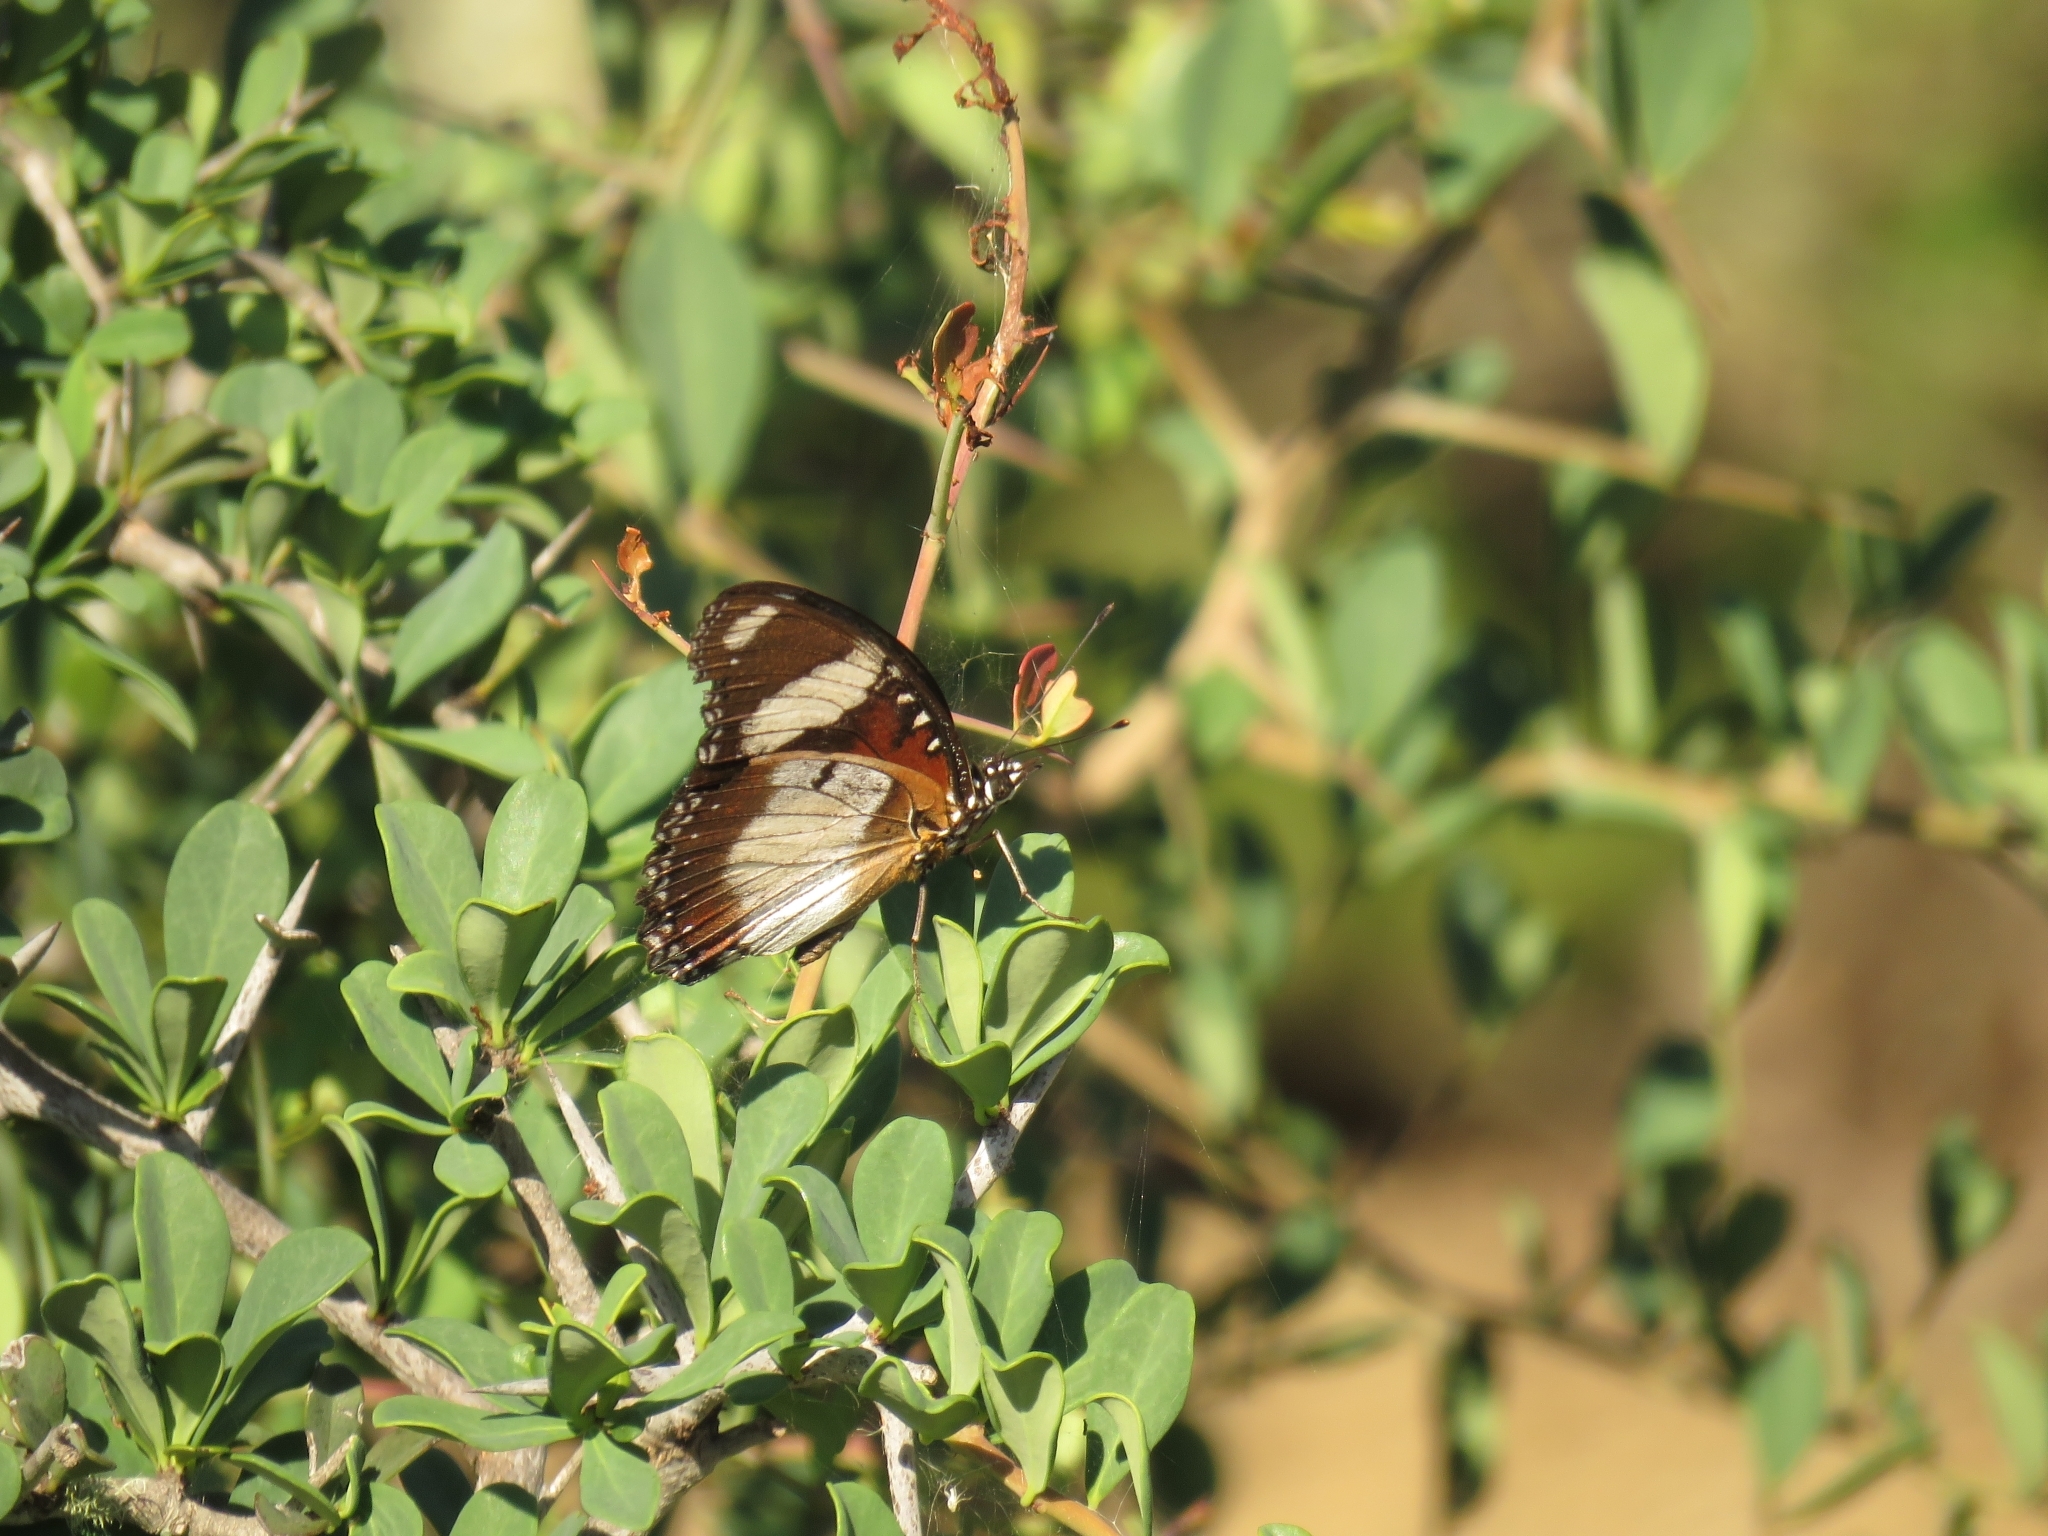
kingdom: Animalia
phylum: Arthropoda
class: Insecta
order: Lepidoptera
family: Nymphalidae
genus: Hypolimnas
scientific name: Hypolimnas misippus
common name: False plain tiger
